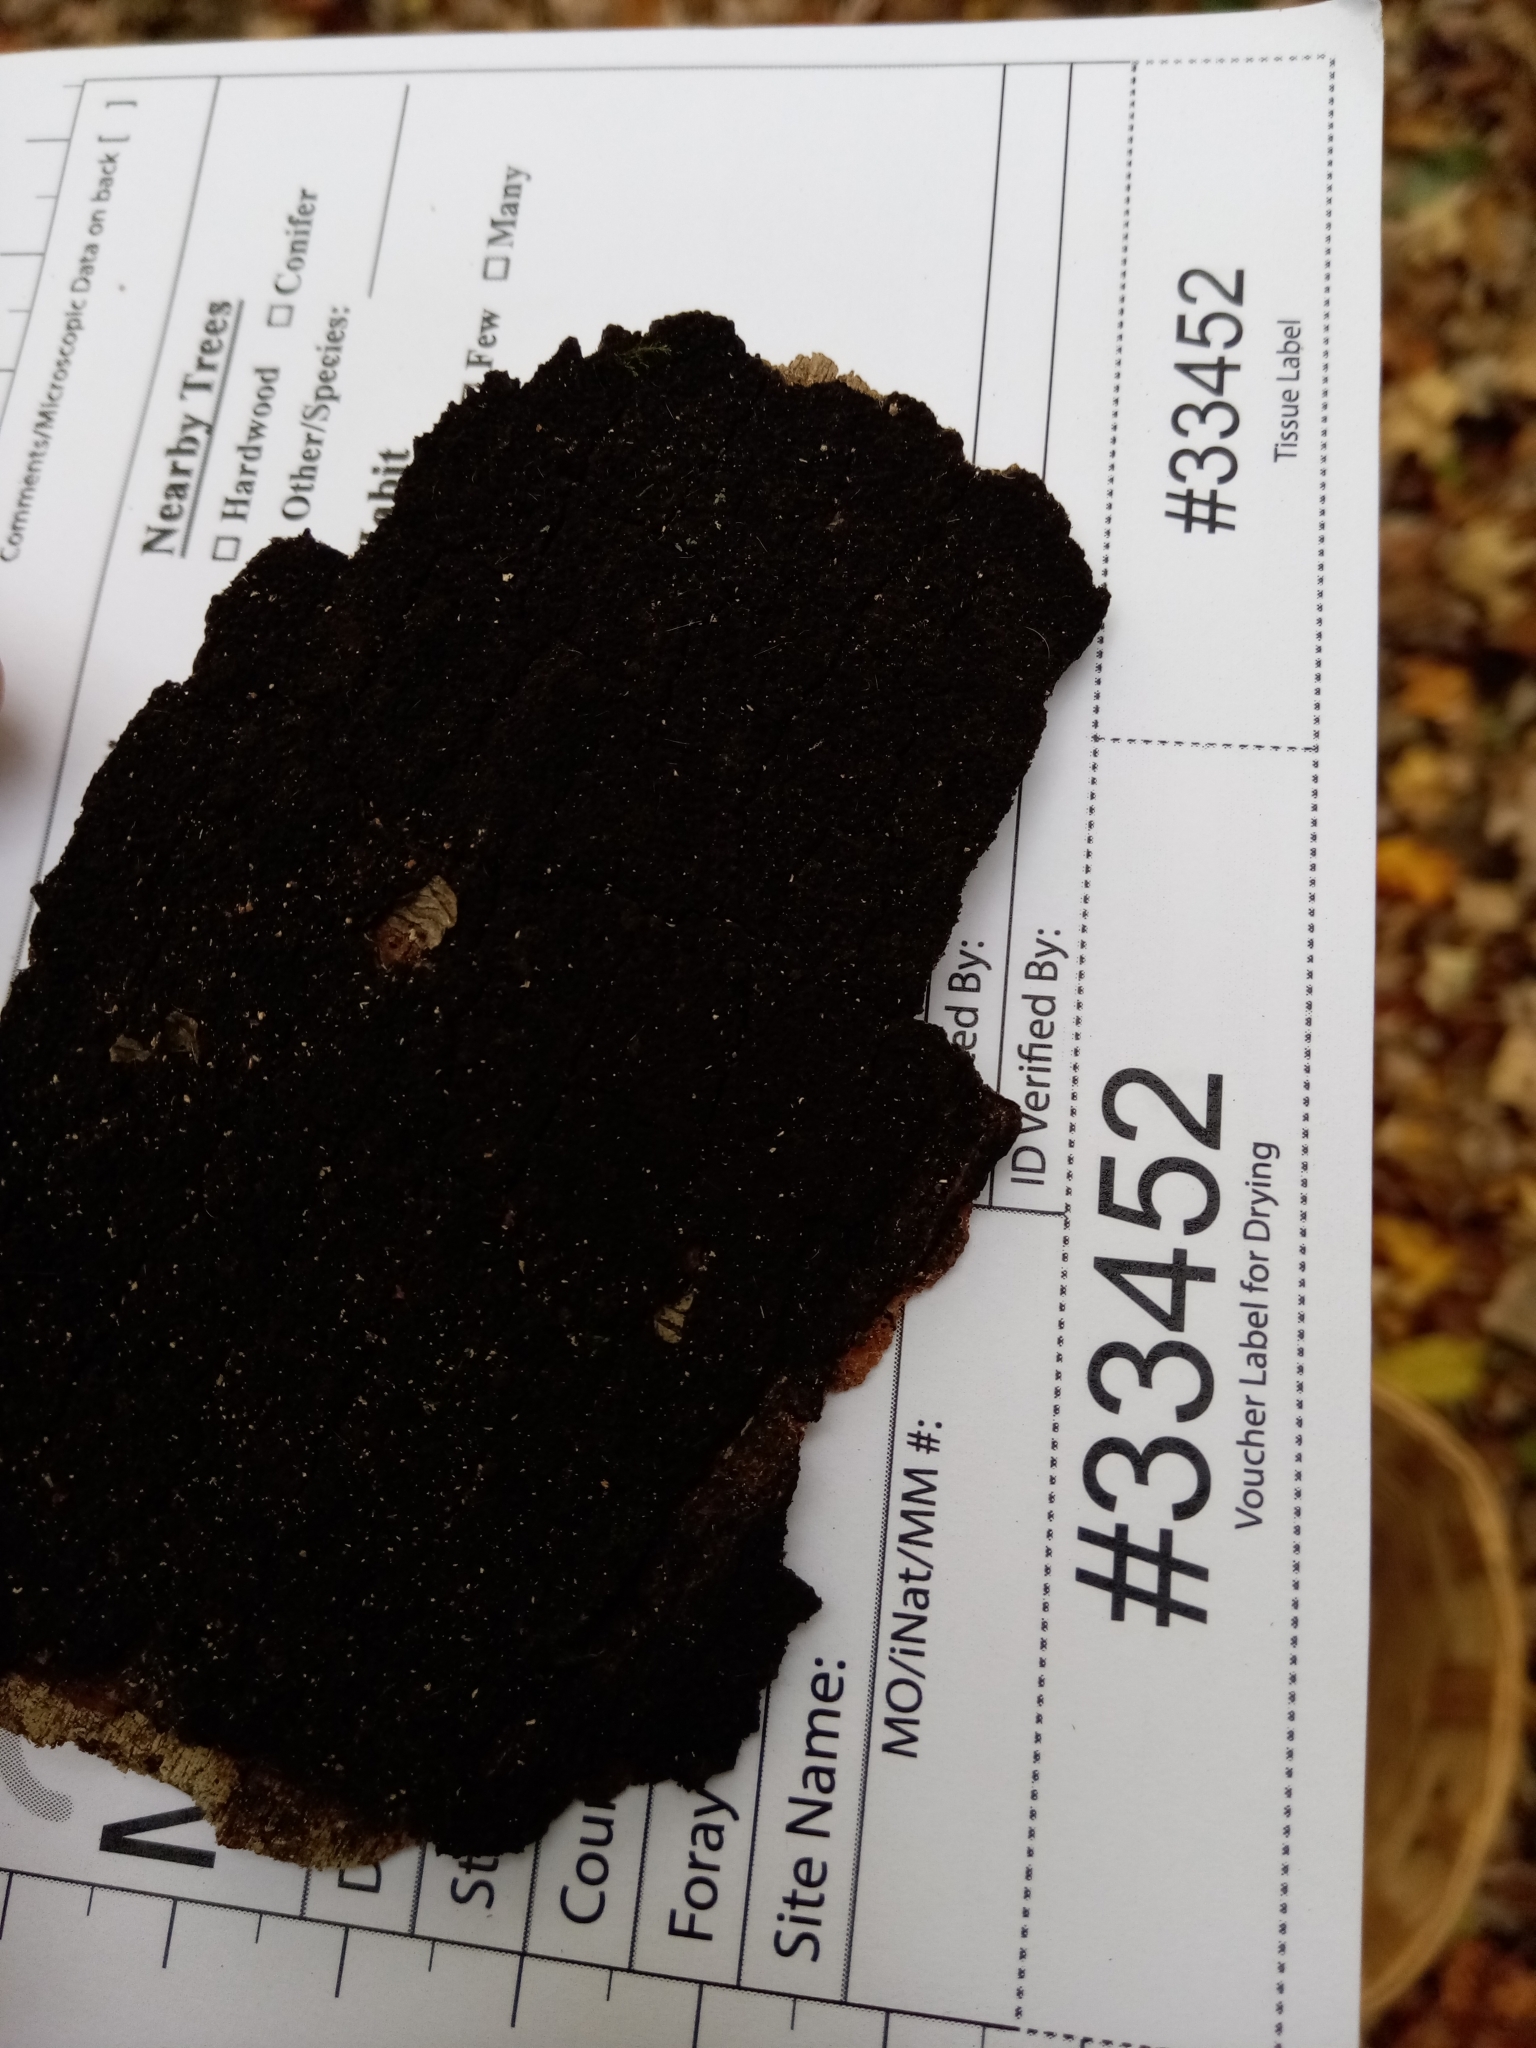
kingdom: Fungi
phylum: Ascomycota
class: Sordariomycetes
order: Xylariales
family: Diatrypaceae
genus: Eutypa
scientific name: Eutypa spinosa
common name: Spiral tarcrust
